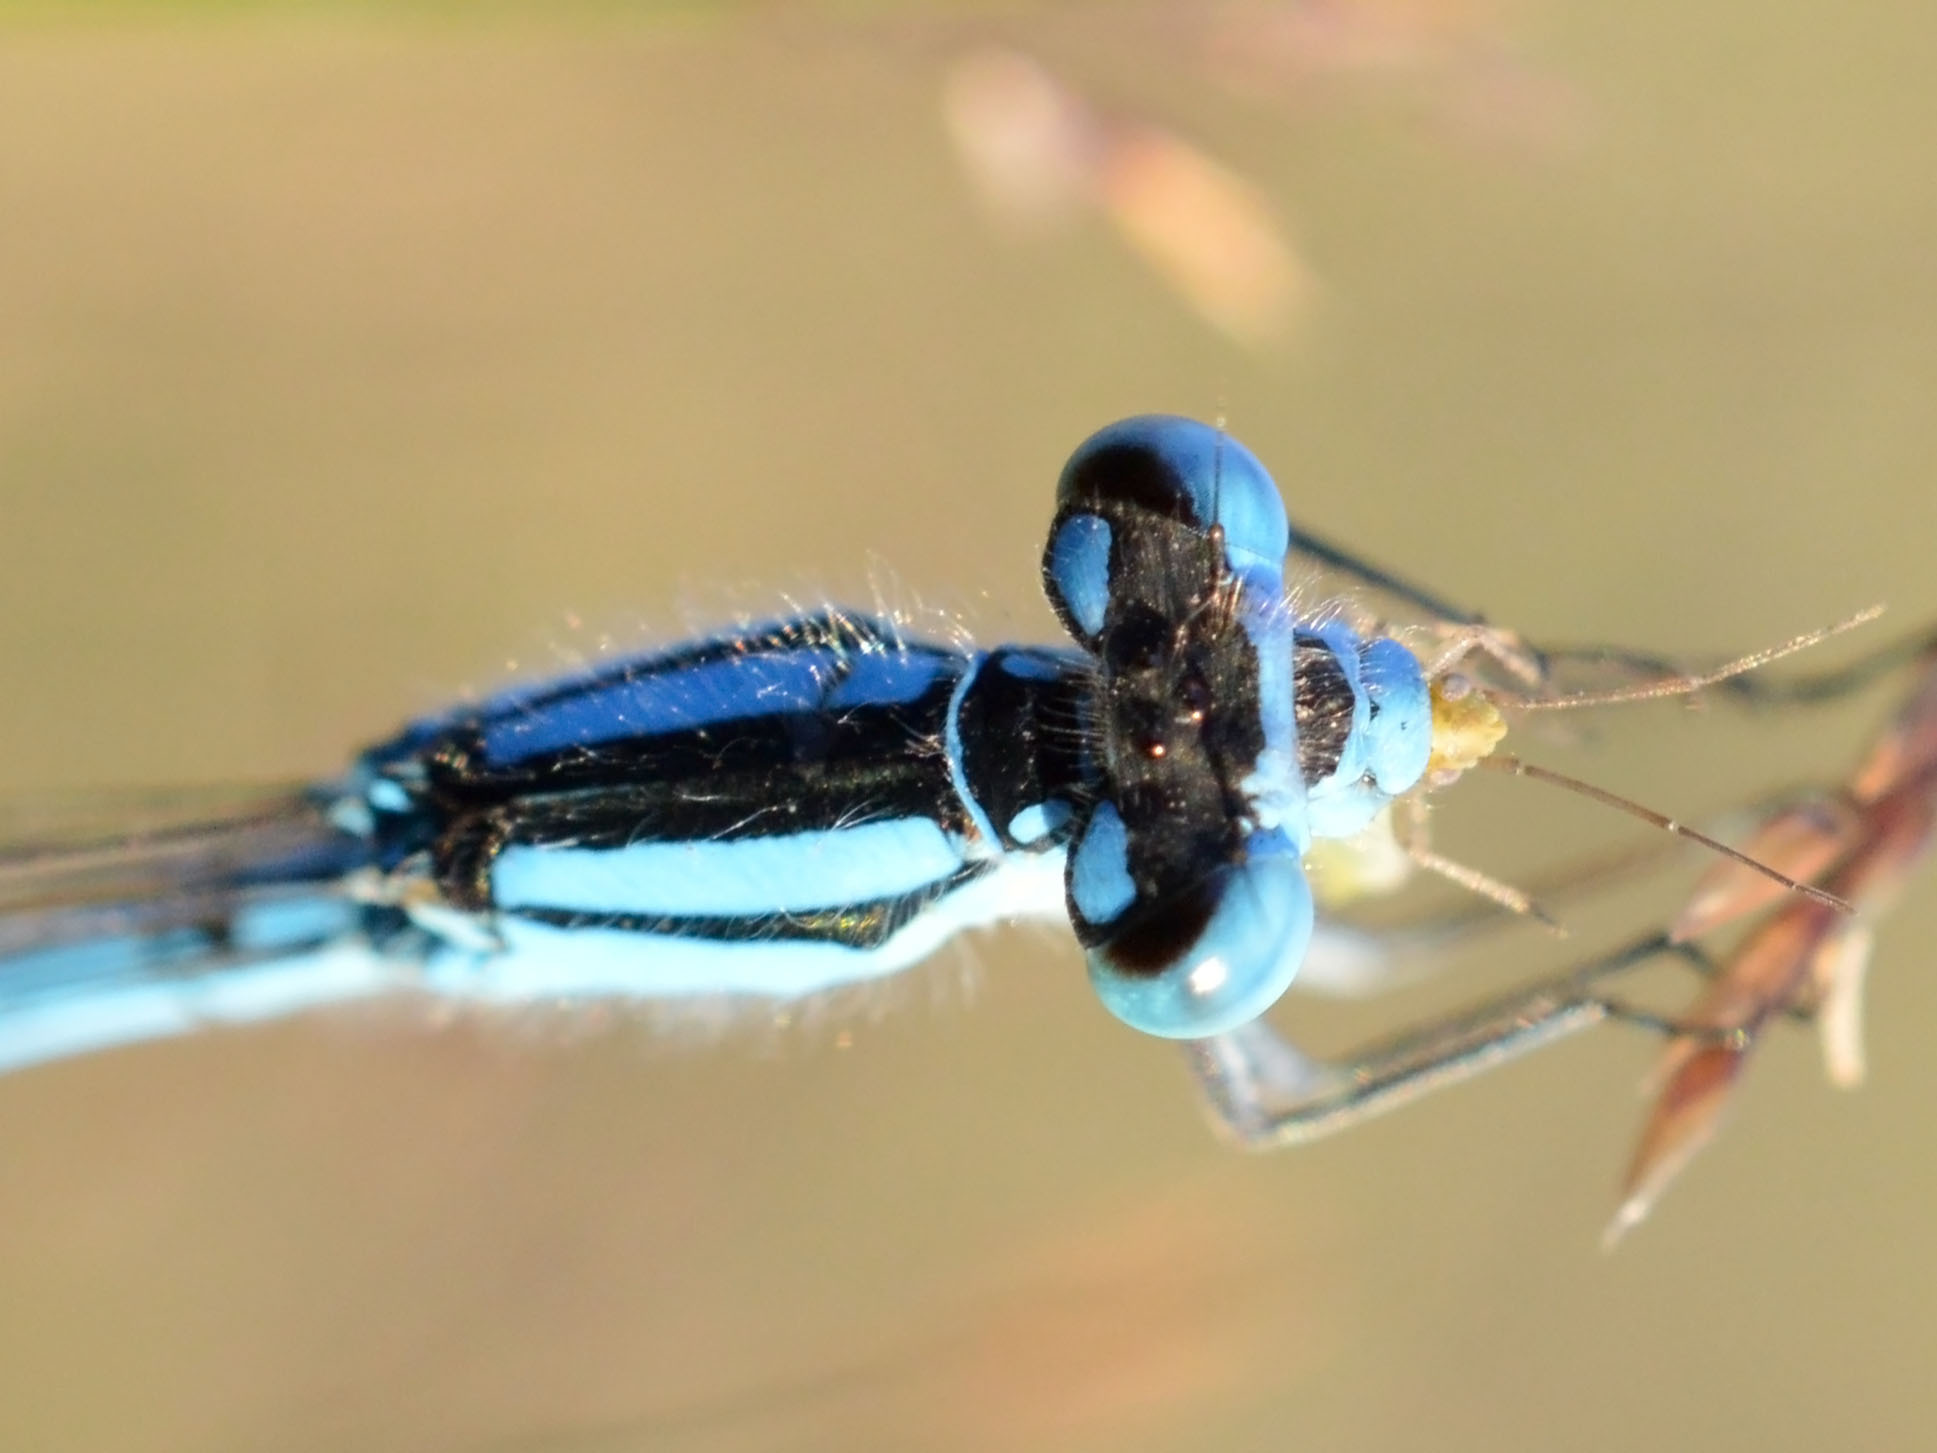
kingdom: Animalia
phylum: Arthropoda
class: Insecta
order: Odonata
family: Coenagrionidae
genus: Enallagma
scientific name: Enallagma cyathigerum
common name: Common blue damselfly
